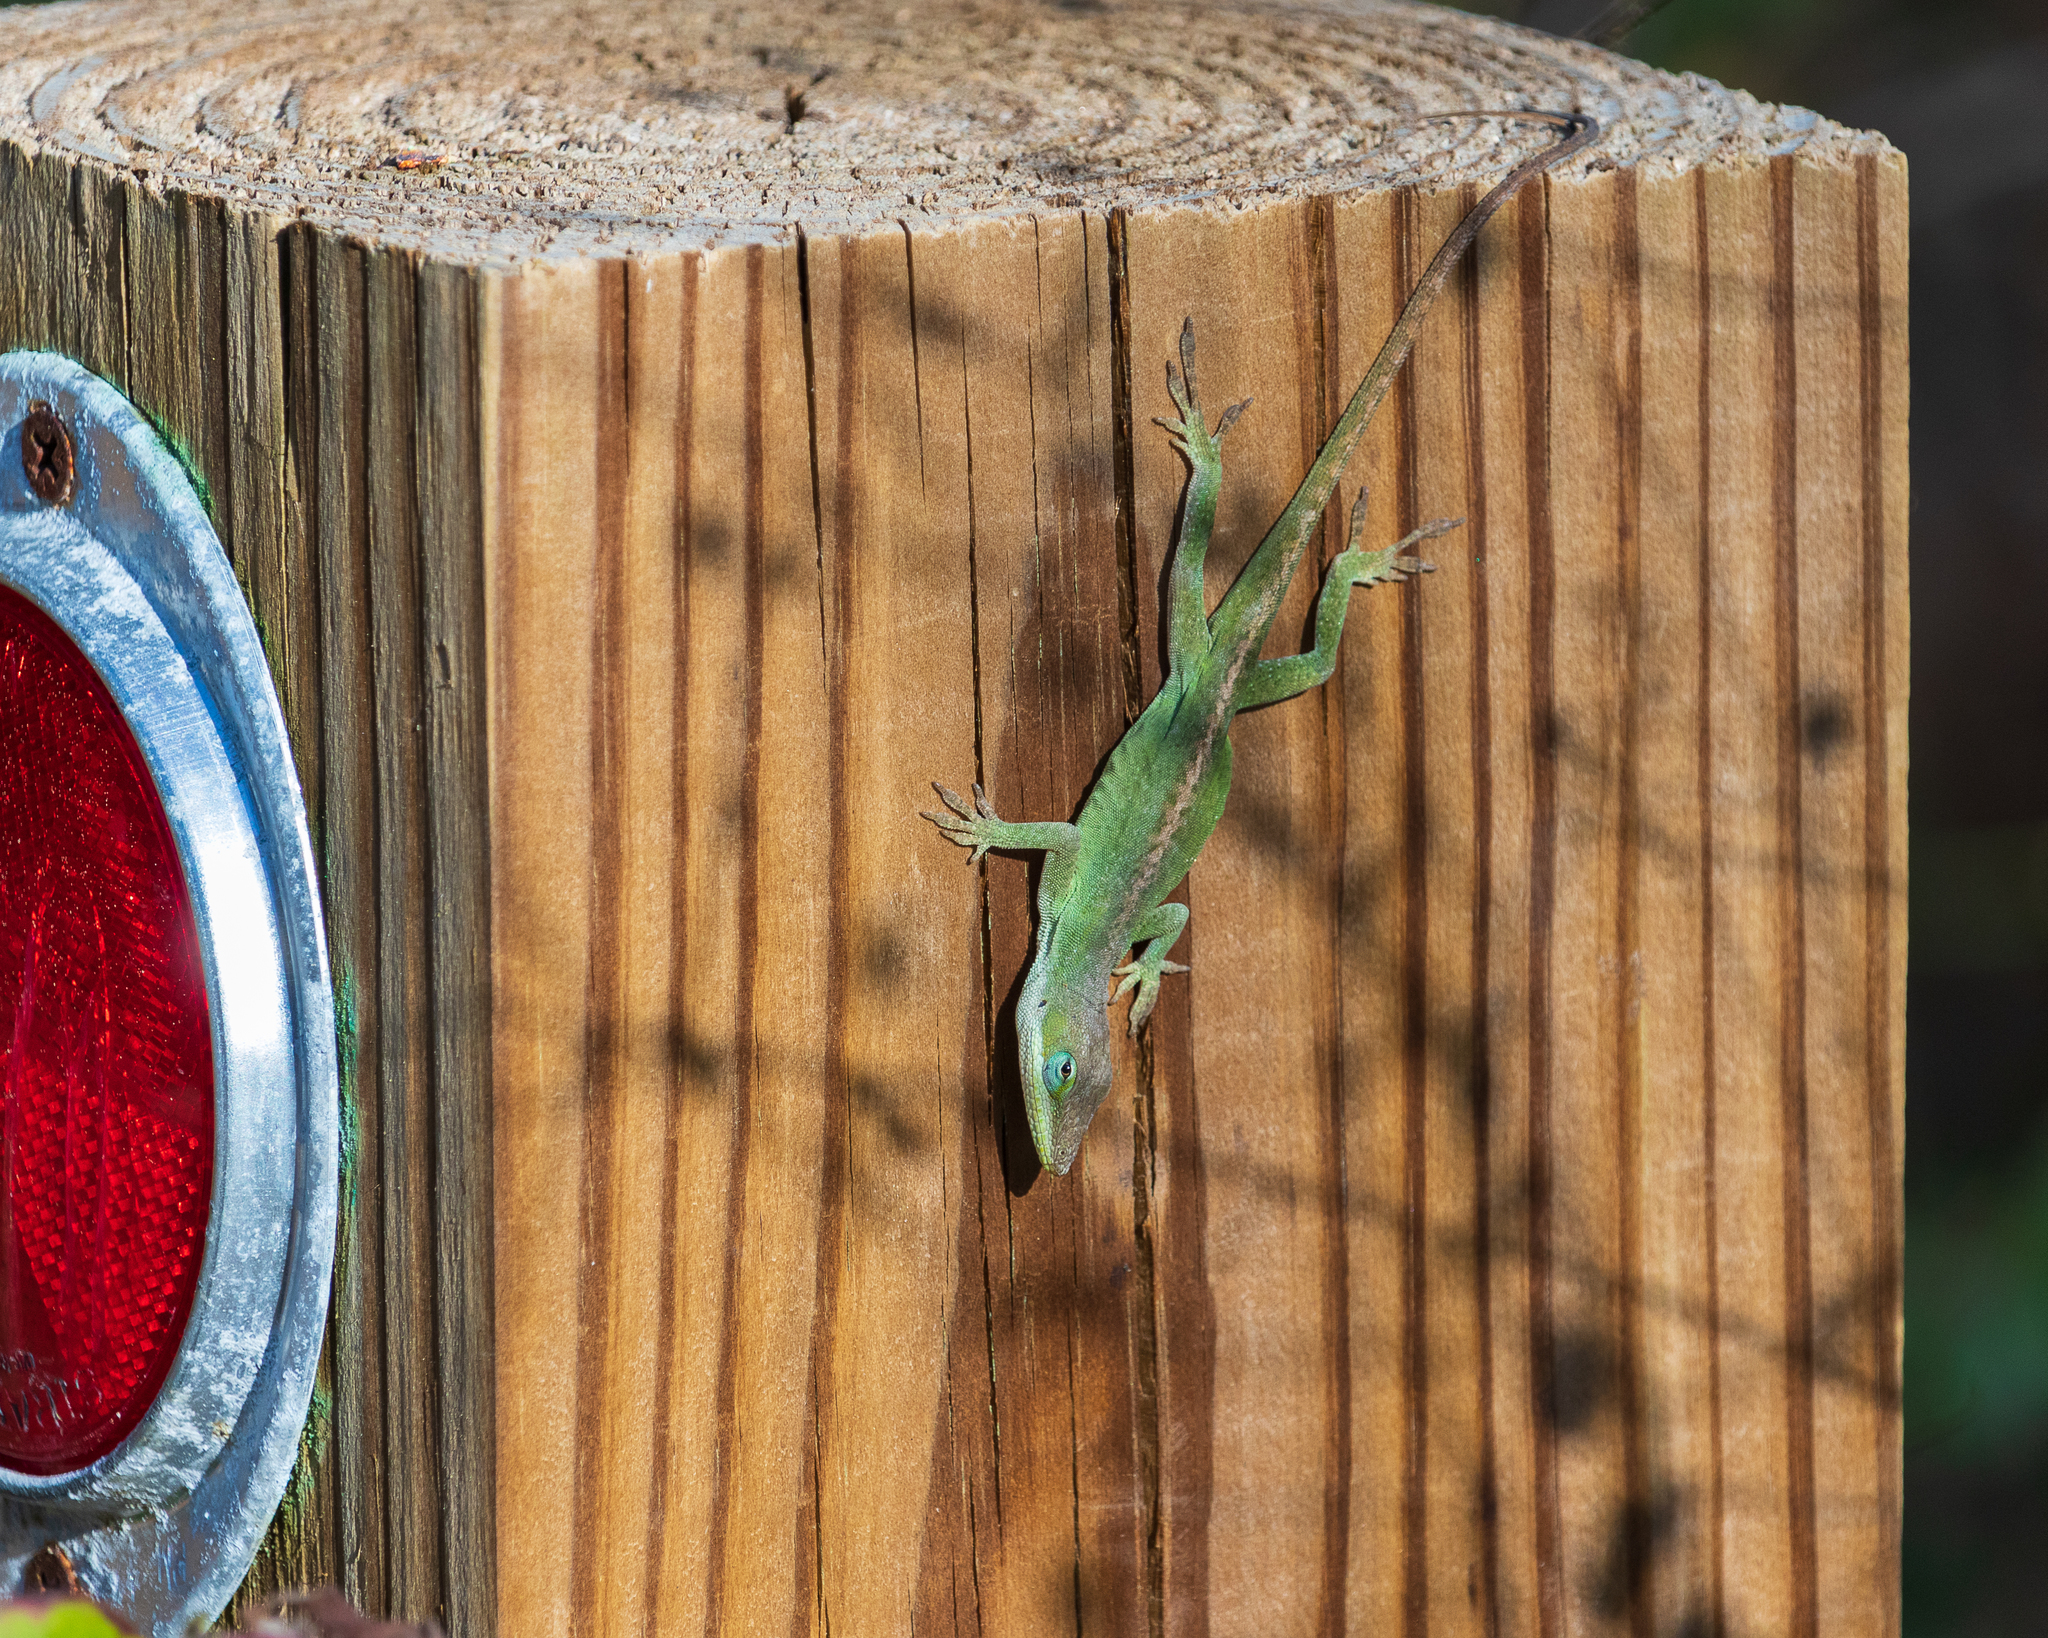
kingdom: Animalia
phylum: Chordata
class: Squamata
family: Dactyloidae
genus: Anolis
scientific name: Anolis carolinensis
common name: Green anole
